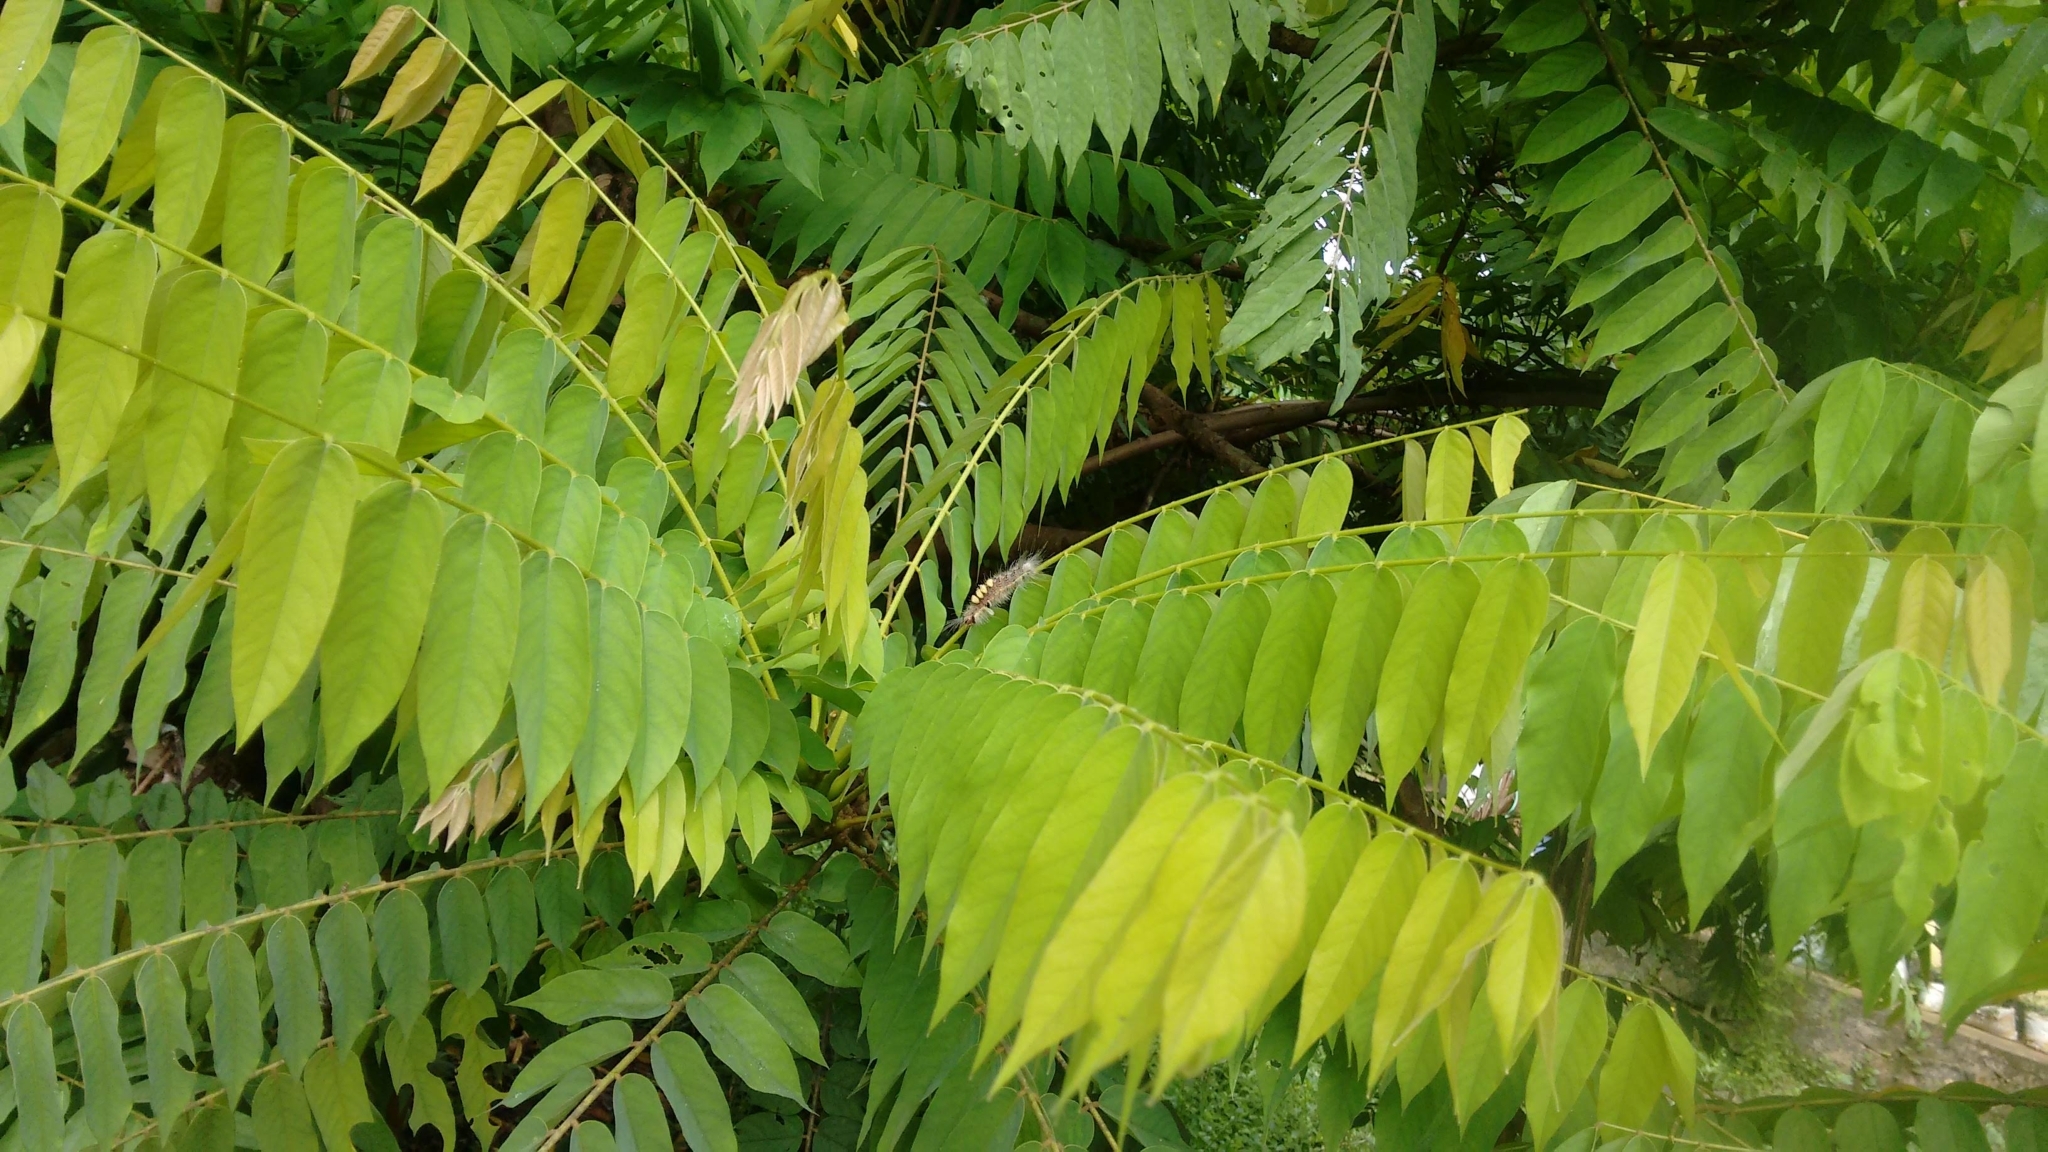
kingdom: Plantae
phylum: Tracheophyta
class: Magnoliopsida
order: Oxalidales
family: Oxalidaceae
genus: Averrhoa
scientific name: Averrhoa bilimbi
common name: Bilimbi
